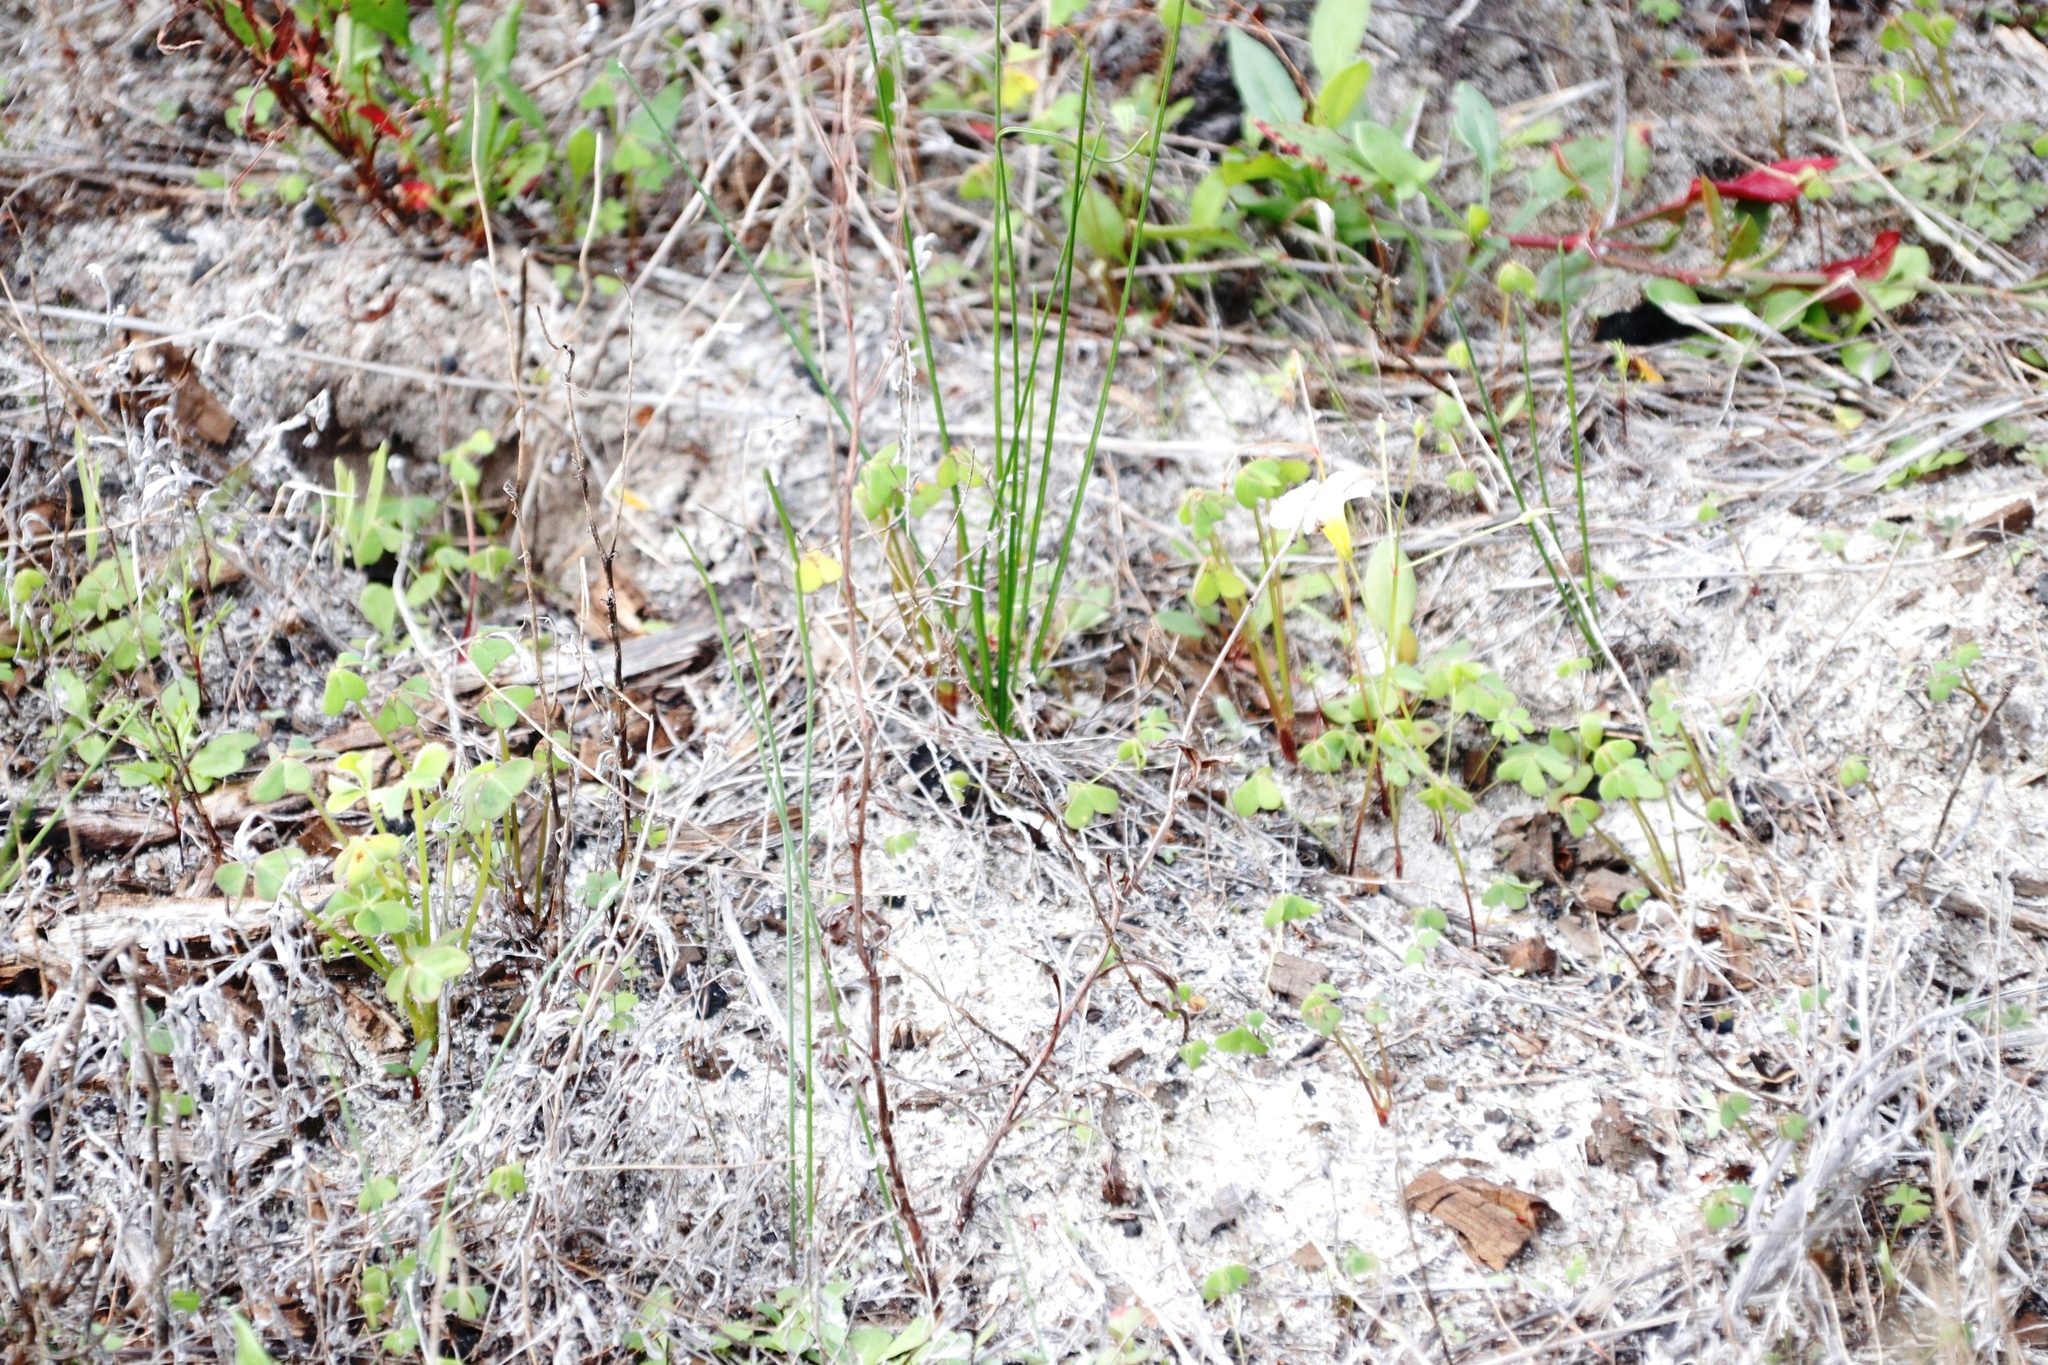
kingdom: Plantae
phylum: Tracheophyta
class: Magnoliopsida
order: Oxalidales
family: Oxalidaceae
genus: Oxalis
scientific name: Oxalis pes-caprae
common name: Bermuda-buttercup
